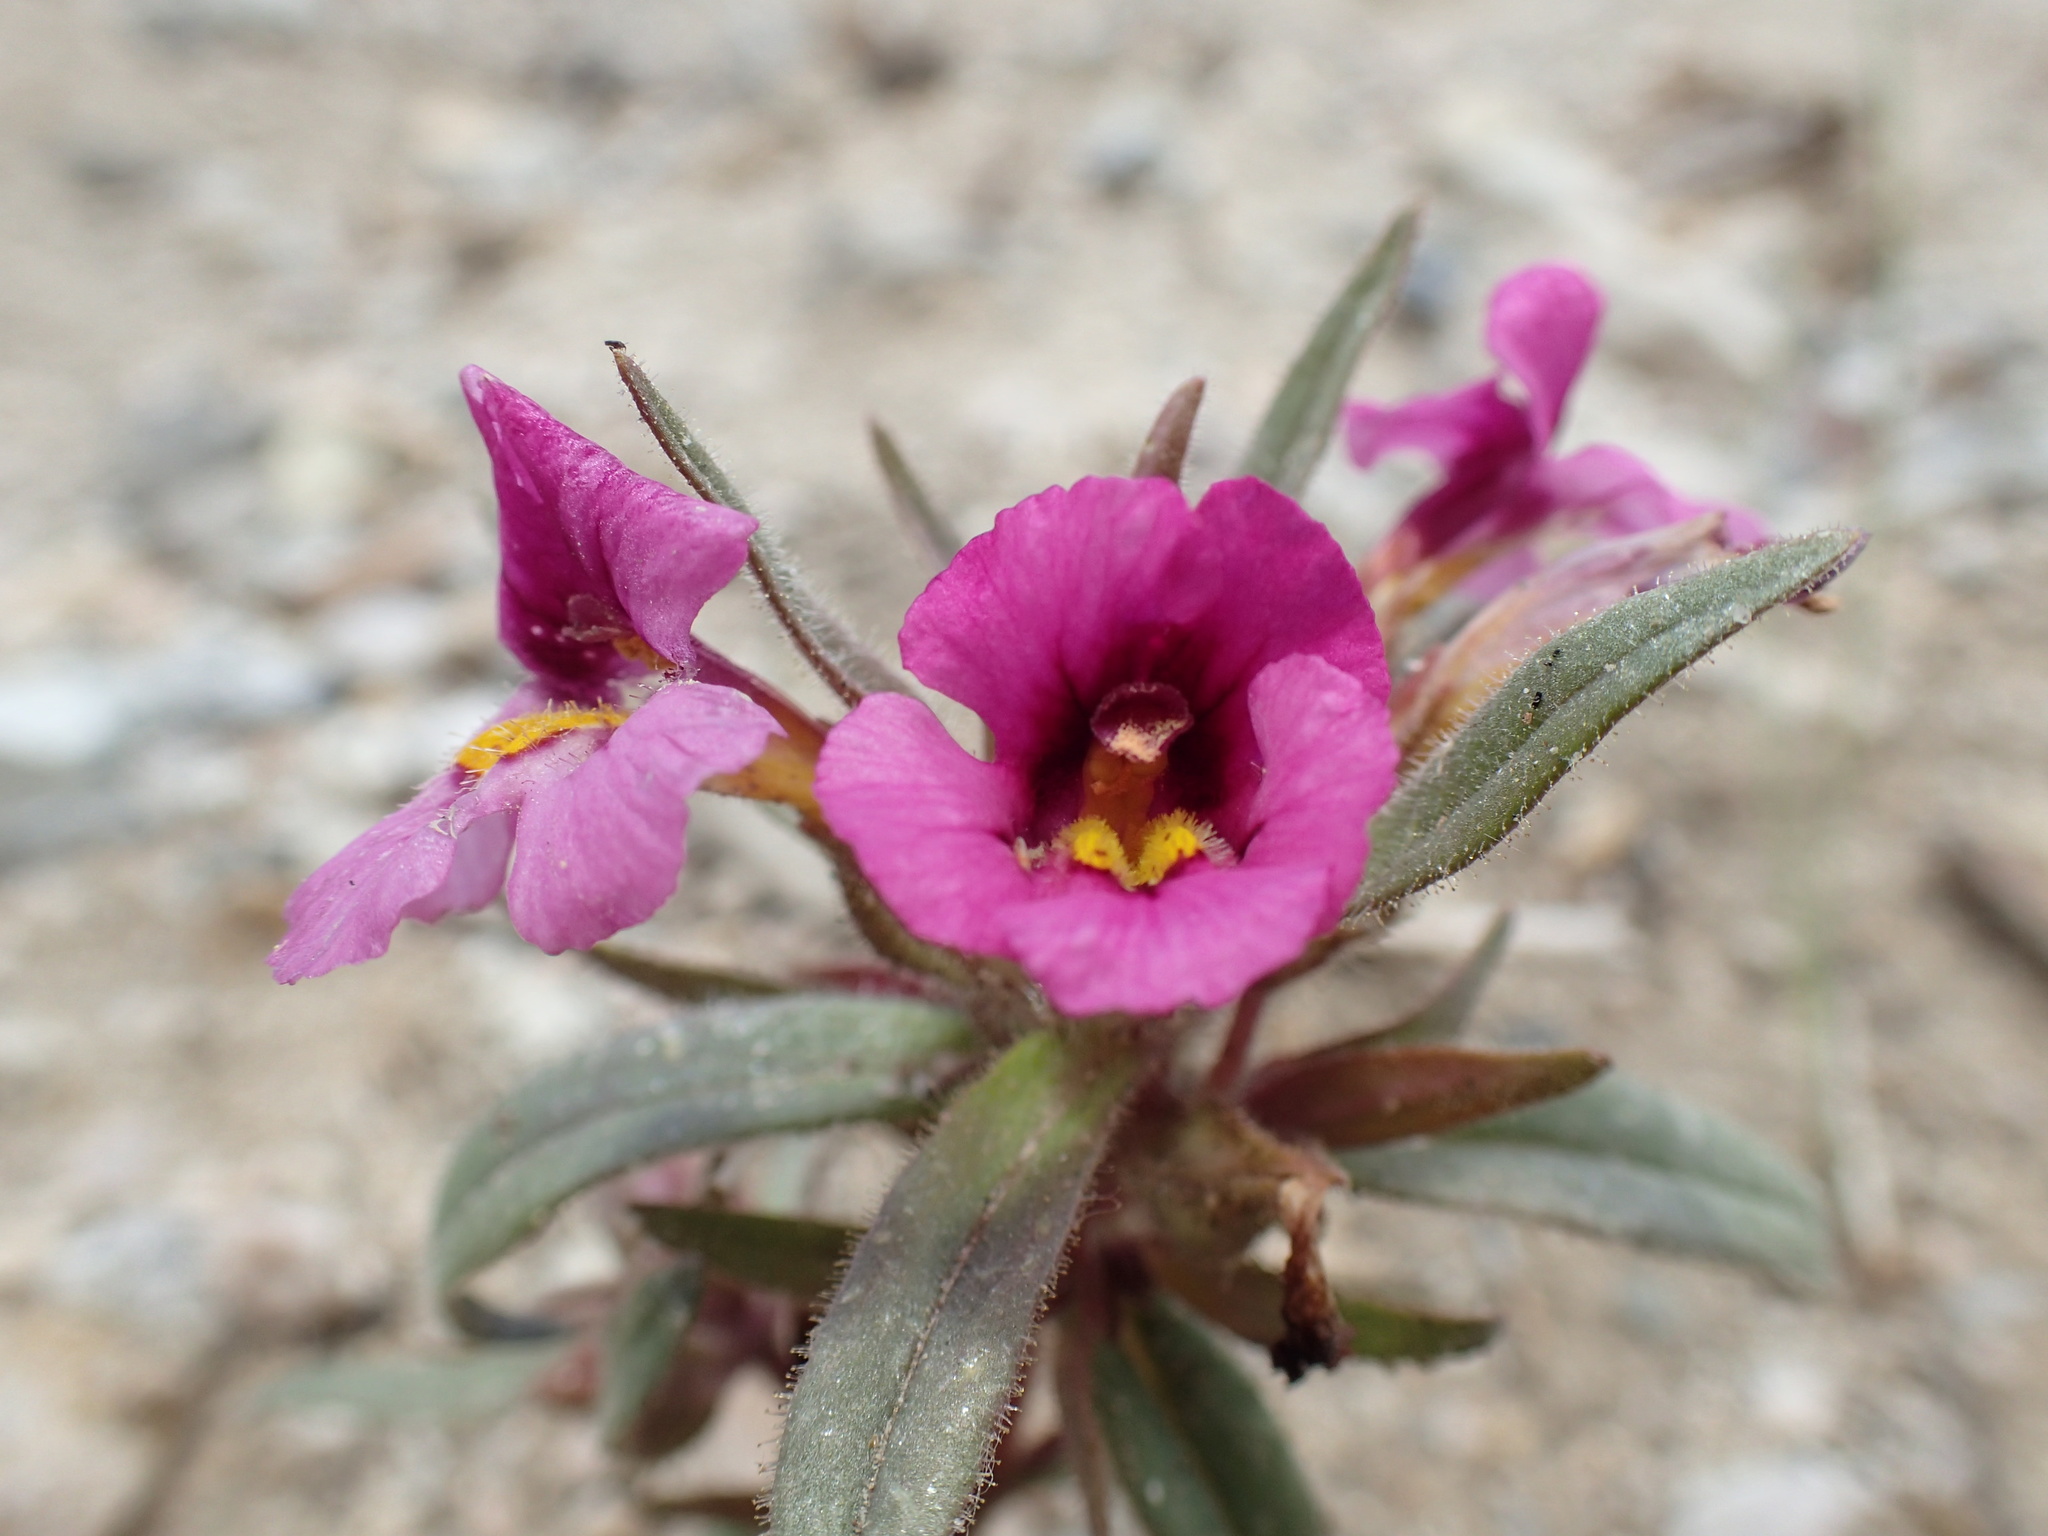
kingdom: Plantae
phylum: Tracheophyta
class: Magnoliopsida
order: Lamiales
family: Phrymaceae
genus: Diplacus
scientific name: Diplacus mephiticus
